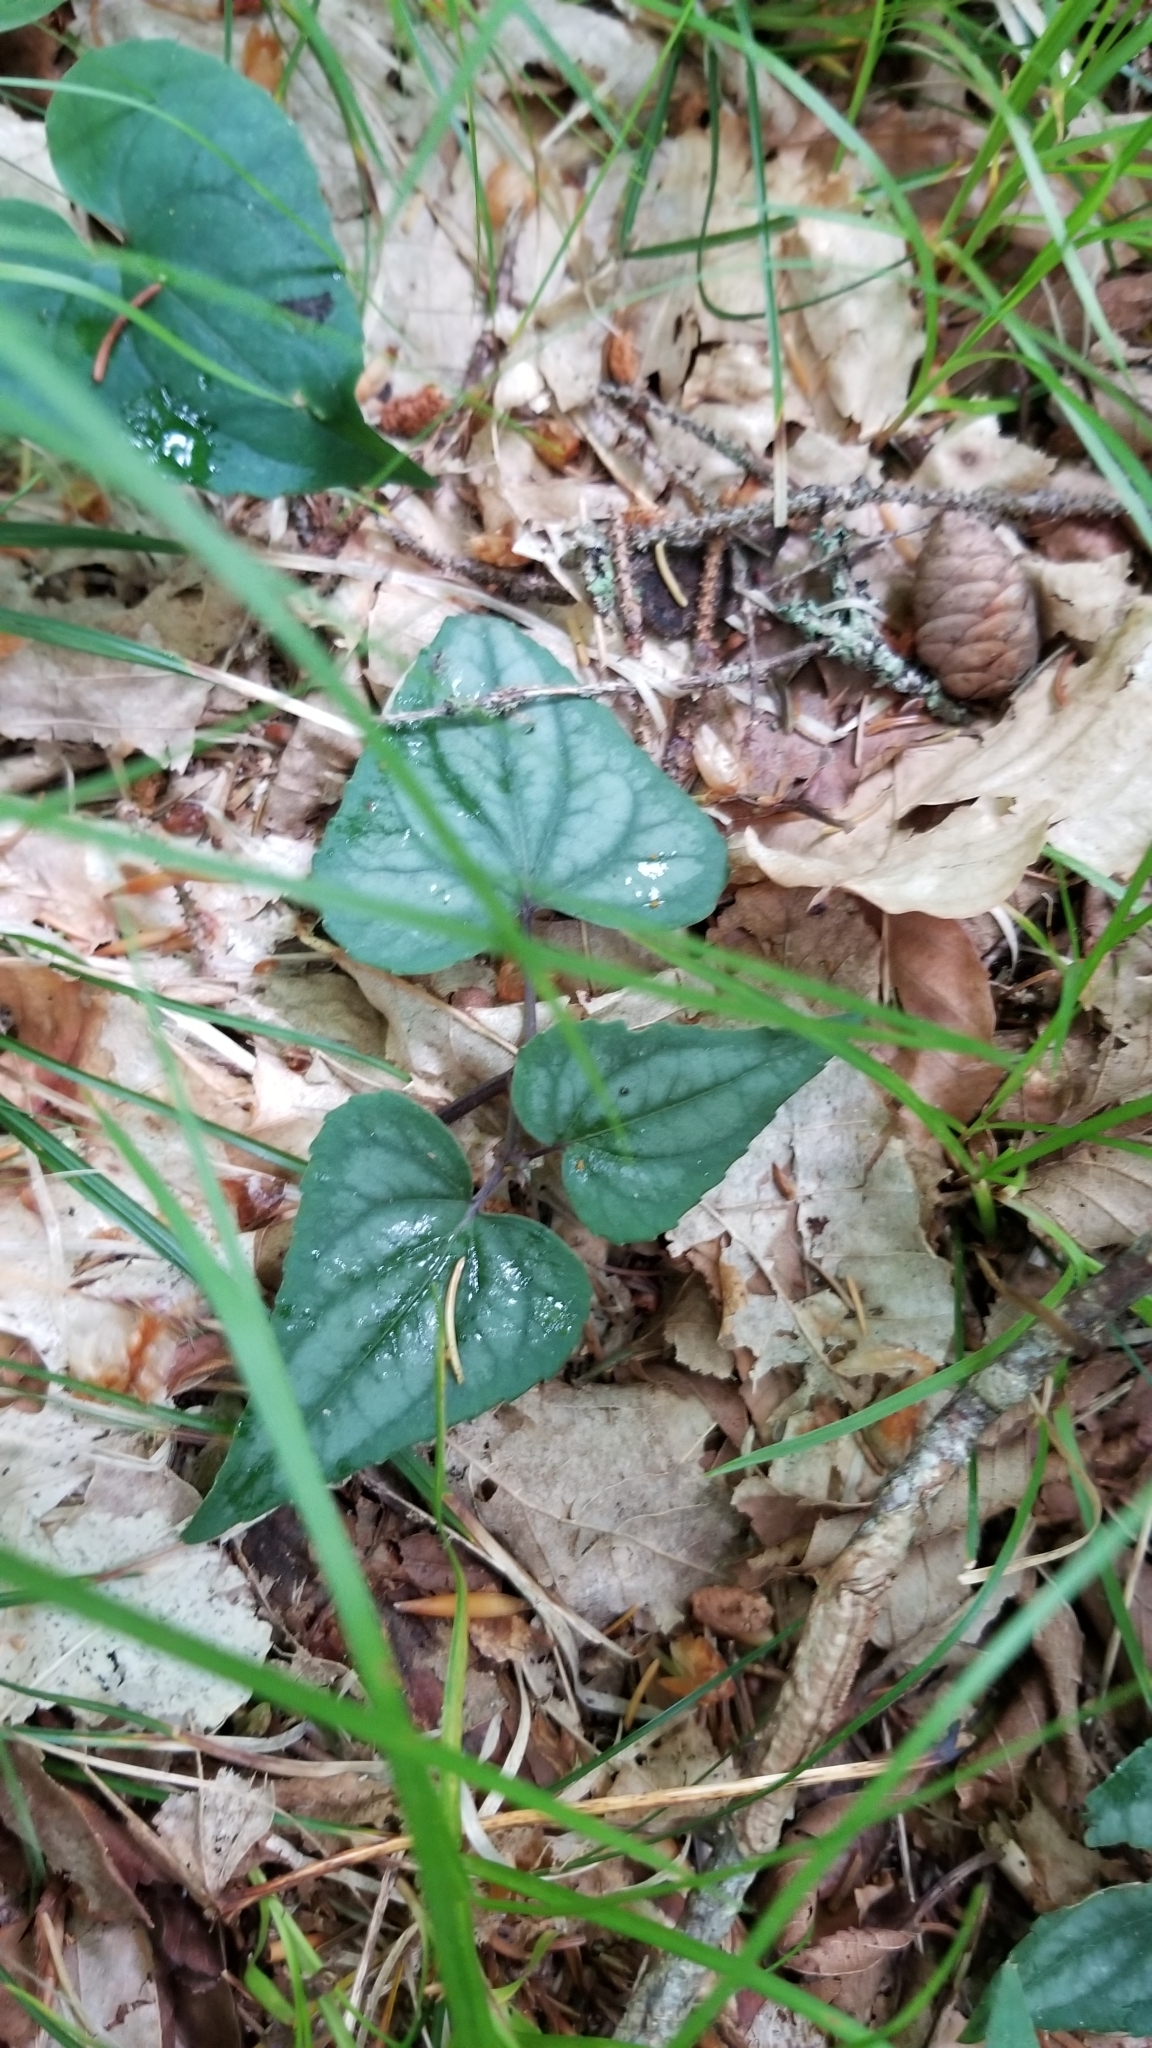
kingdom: Plantae
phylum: Tracheophyta
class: Magnoliopsida
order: Malpighiales
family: Violaceae
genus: Viola
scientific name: Viola hastata
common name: Spear-leaf violet
